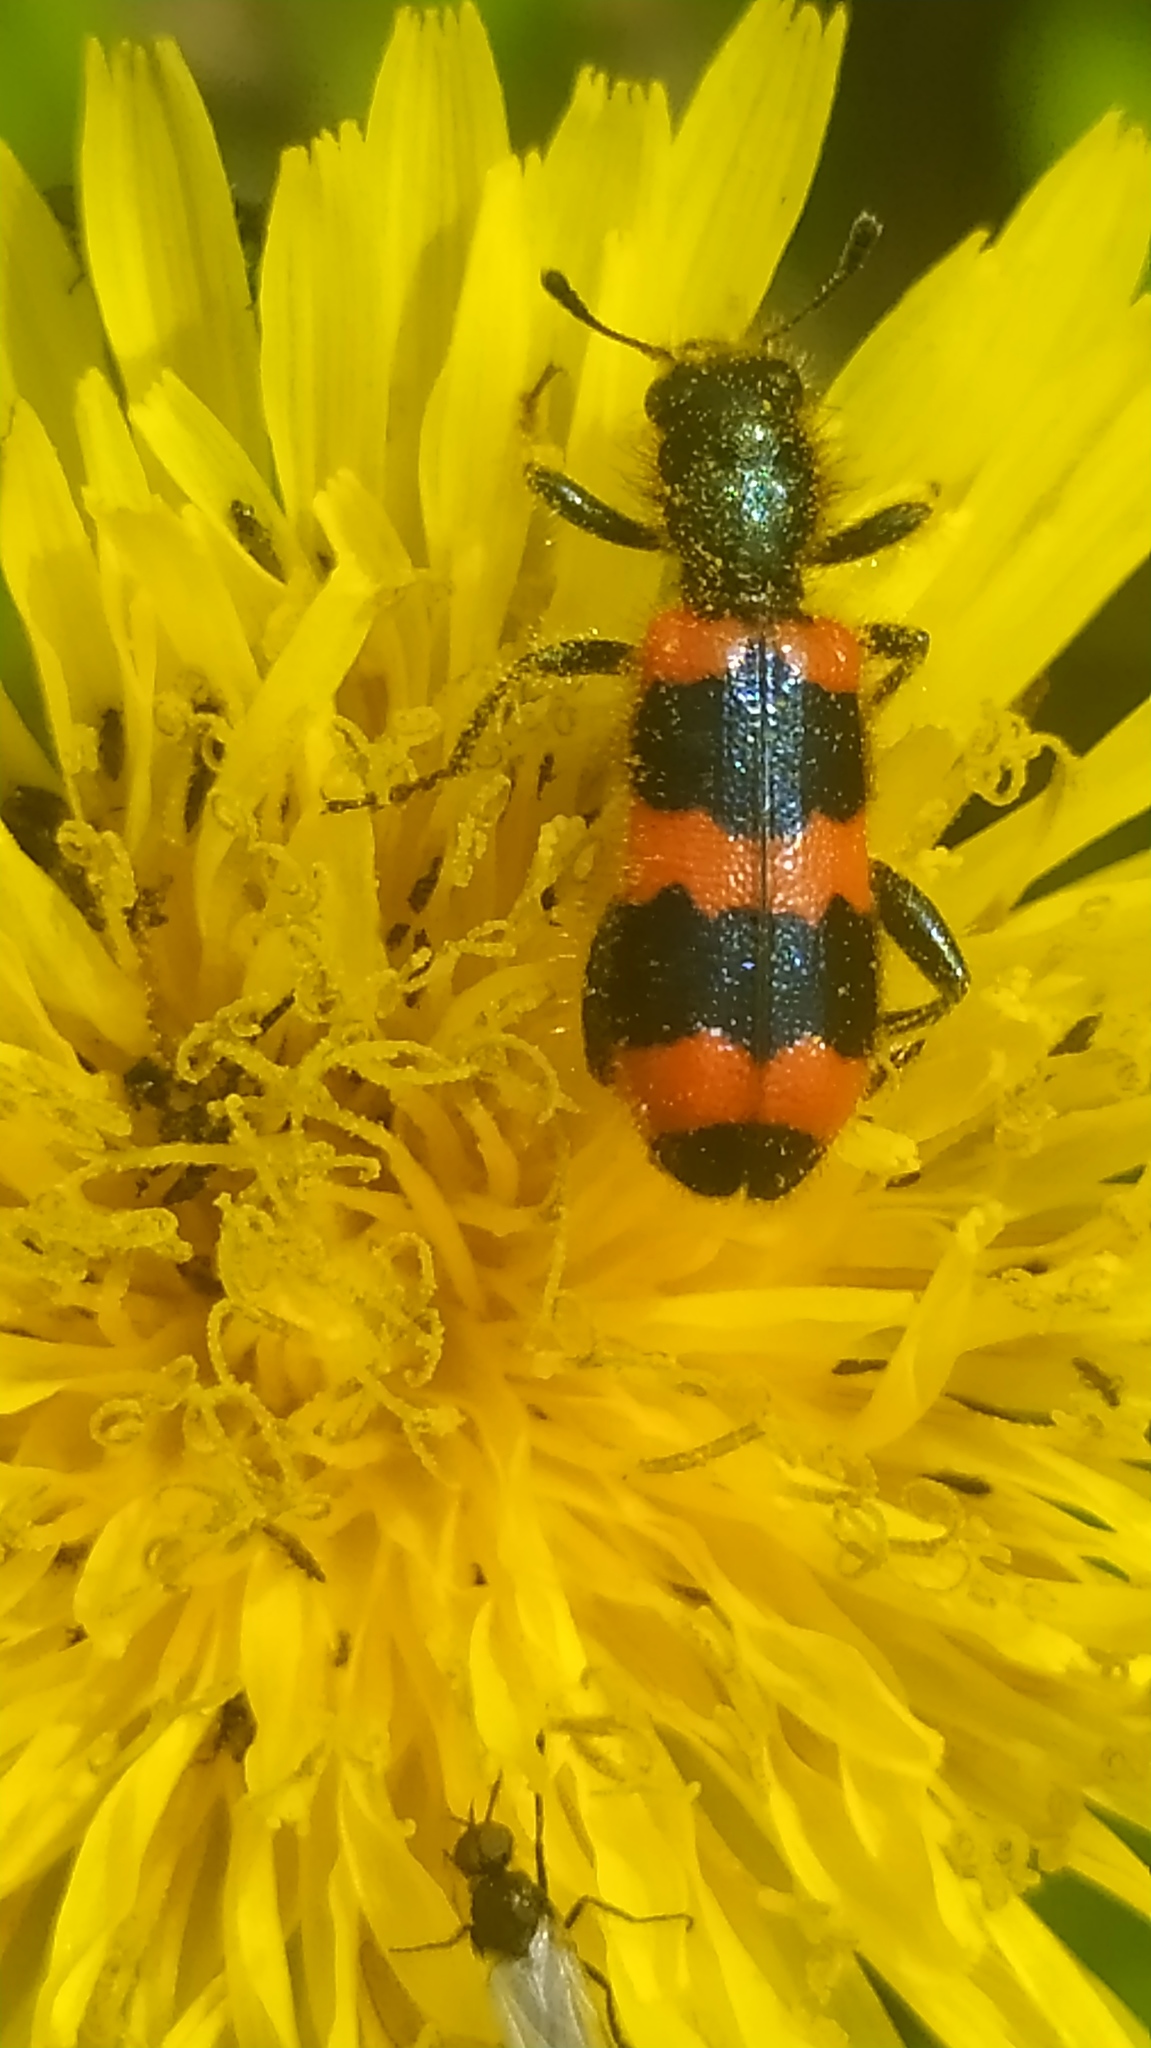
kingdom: Animalia
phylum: Arthropoda
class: Insecta
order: Coleoptera
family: Cleridae
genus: Trichodes
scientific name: Trichodes apiarius
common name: Bee-eating beetle
